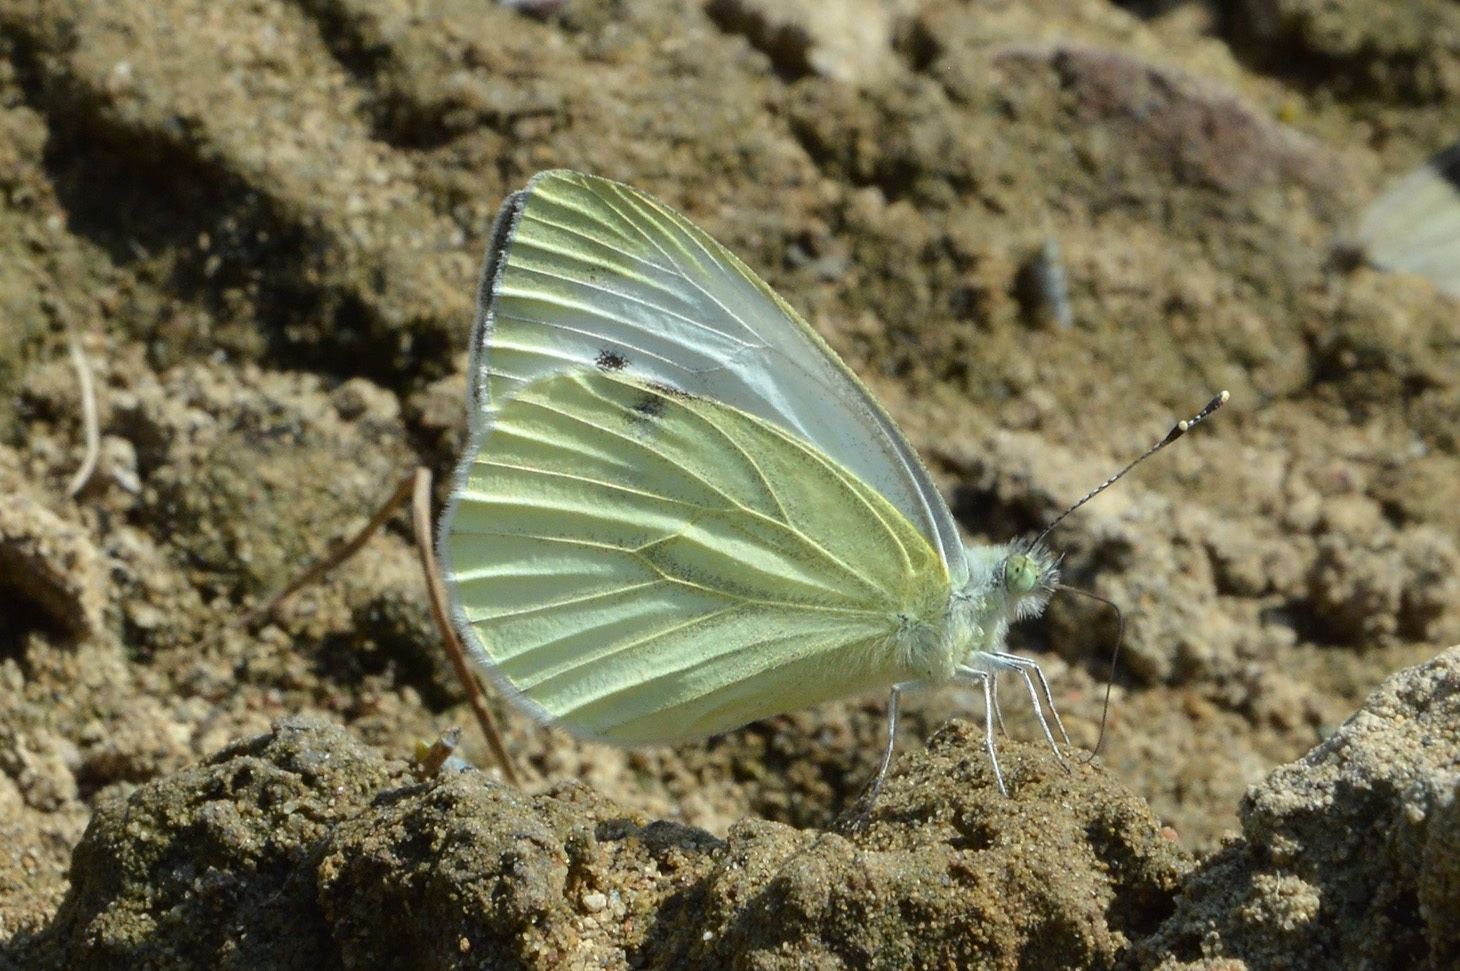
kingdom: Animalia
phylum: Arthropoda
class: Insecta
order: Lepidoptera
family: Pieridae
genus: Pieris
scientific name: Pieris napi
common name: Green-veined white
